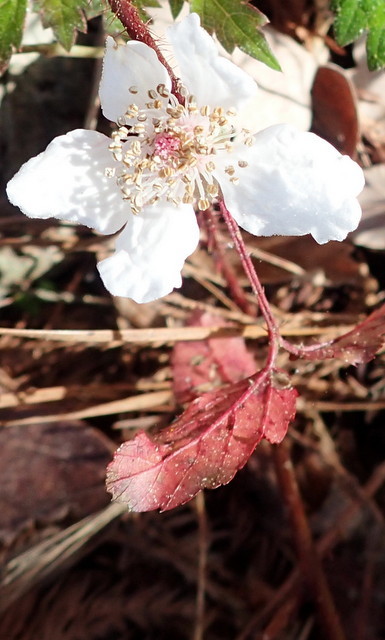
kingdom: Plantae
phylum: Tracheophyta
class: Magnoliopsida
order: Rosales
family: Rosaceae
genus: Rubus
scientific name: Rubus trivialis
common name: Southern dewberry
